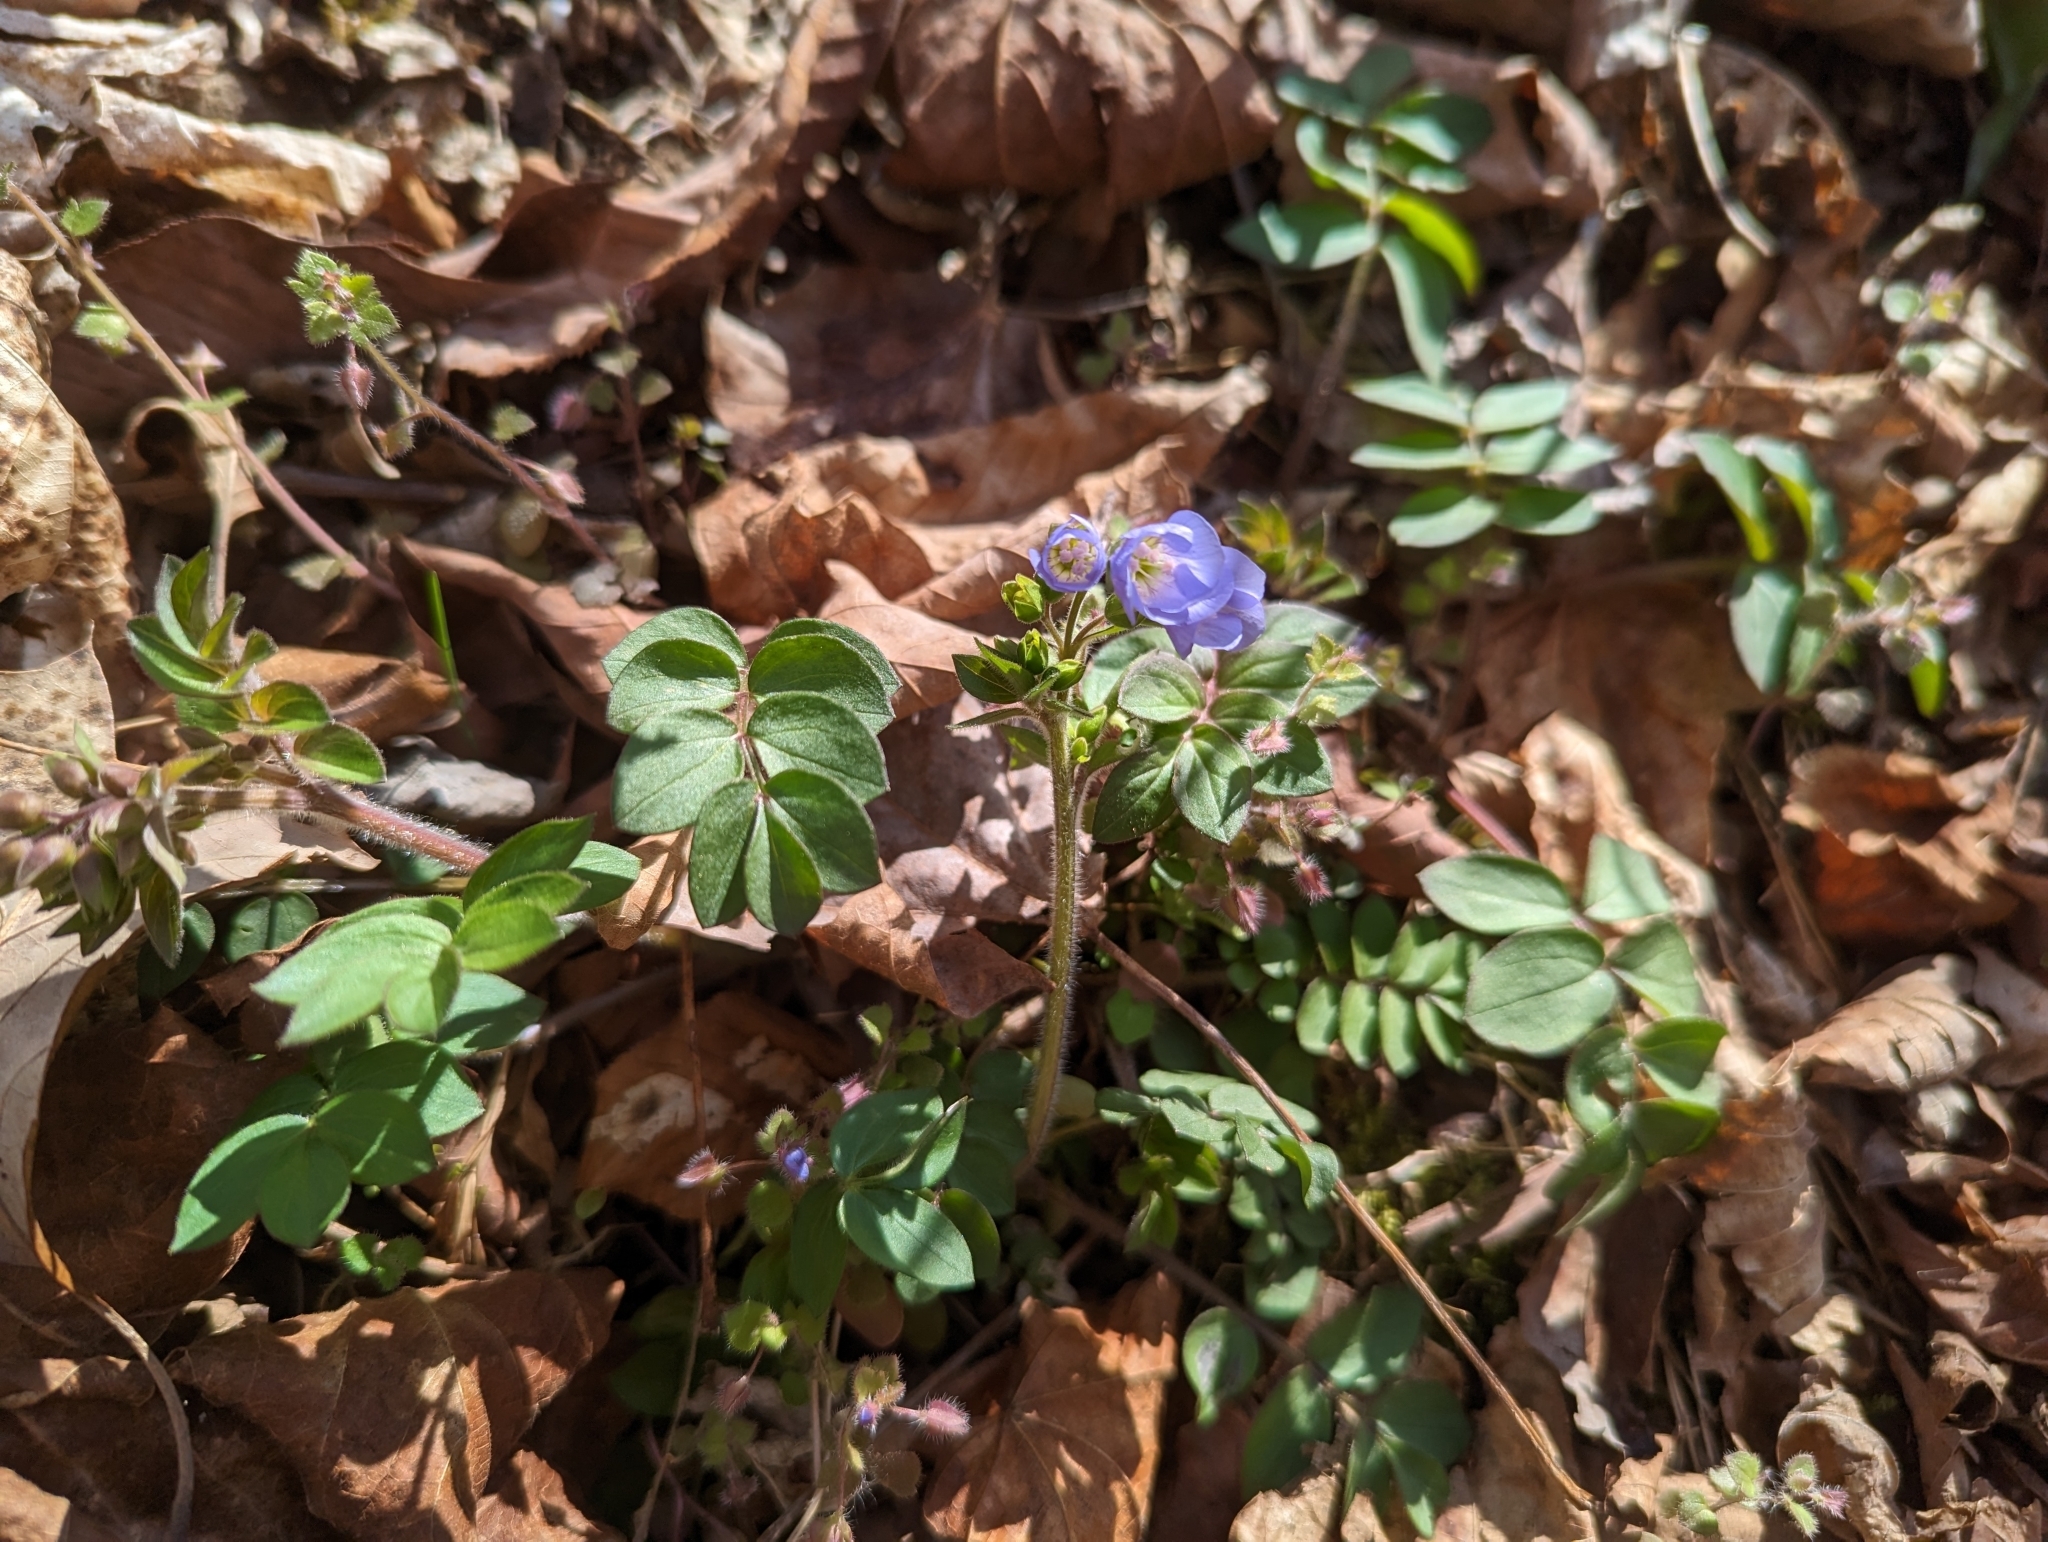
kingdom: Plantae
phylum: Tracheophyta
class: Magnoliopsida
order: Ericales
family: Polemoniaceae
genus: Polemonium
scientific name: Polemonium reptans
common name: Creeping jacob's-ladder
